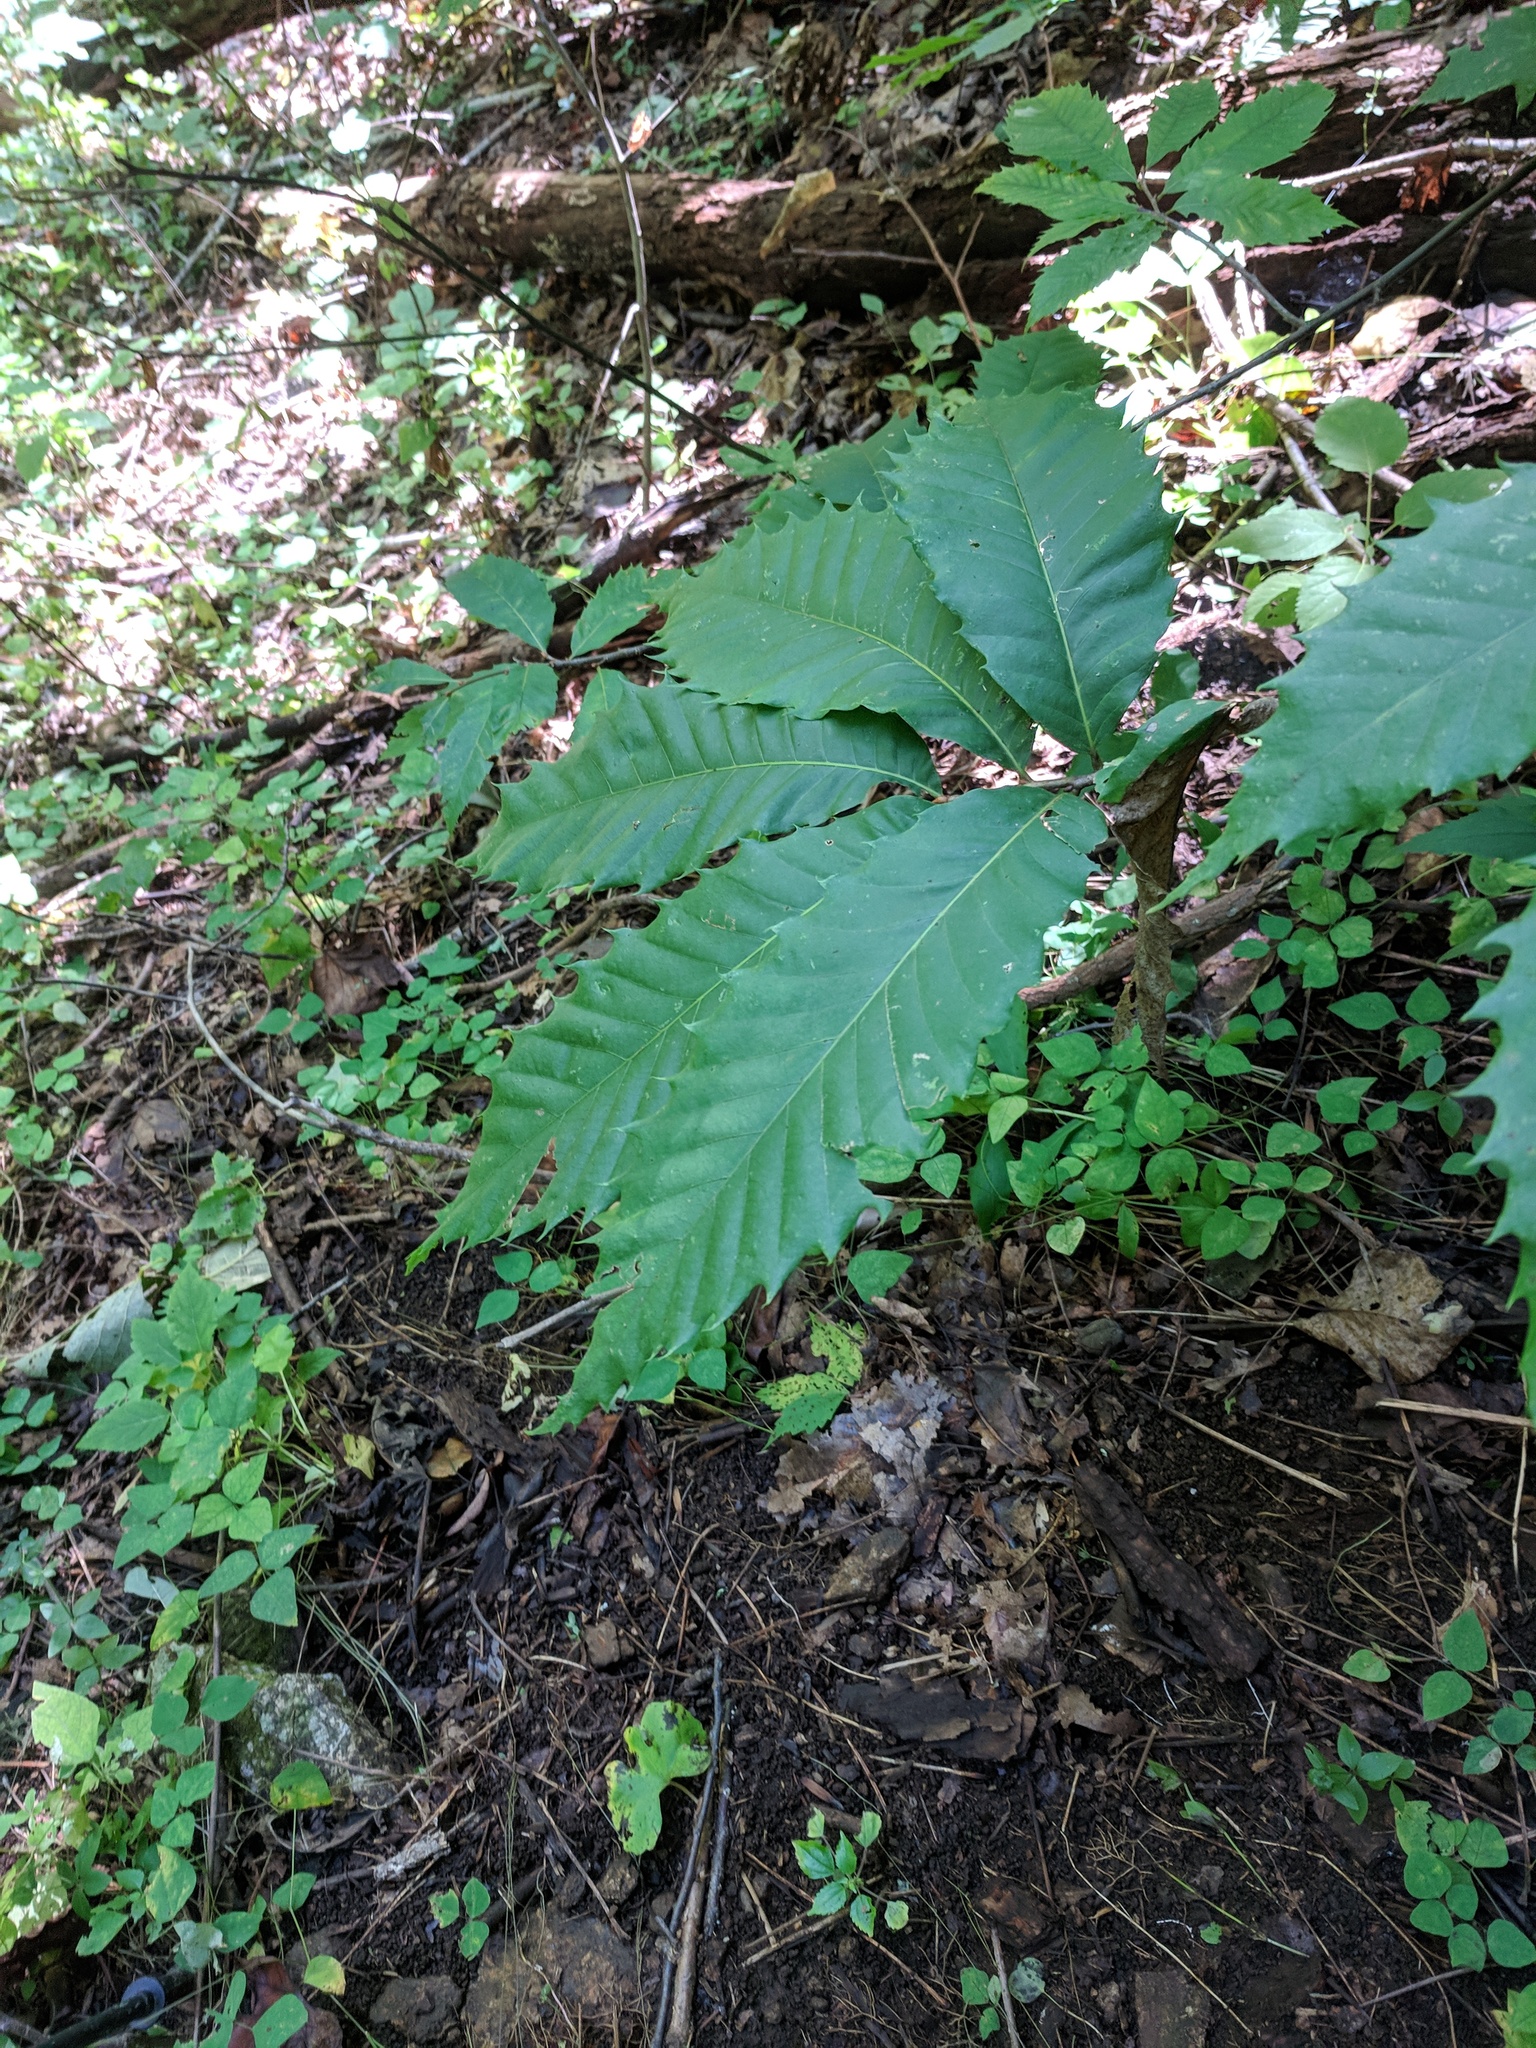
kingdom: Plantae
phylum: Tracheophyta
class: Magnoliopsida
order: Fagales
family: Fagaceae
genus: Castanea
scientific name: Castanea dentata
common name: American chestnut
